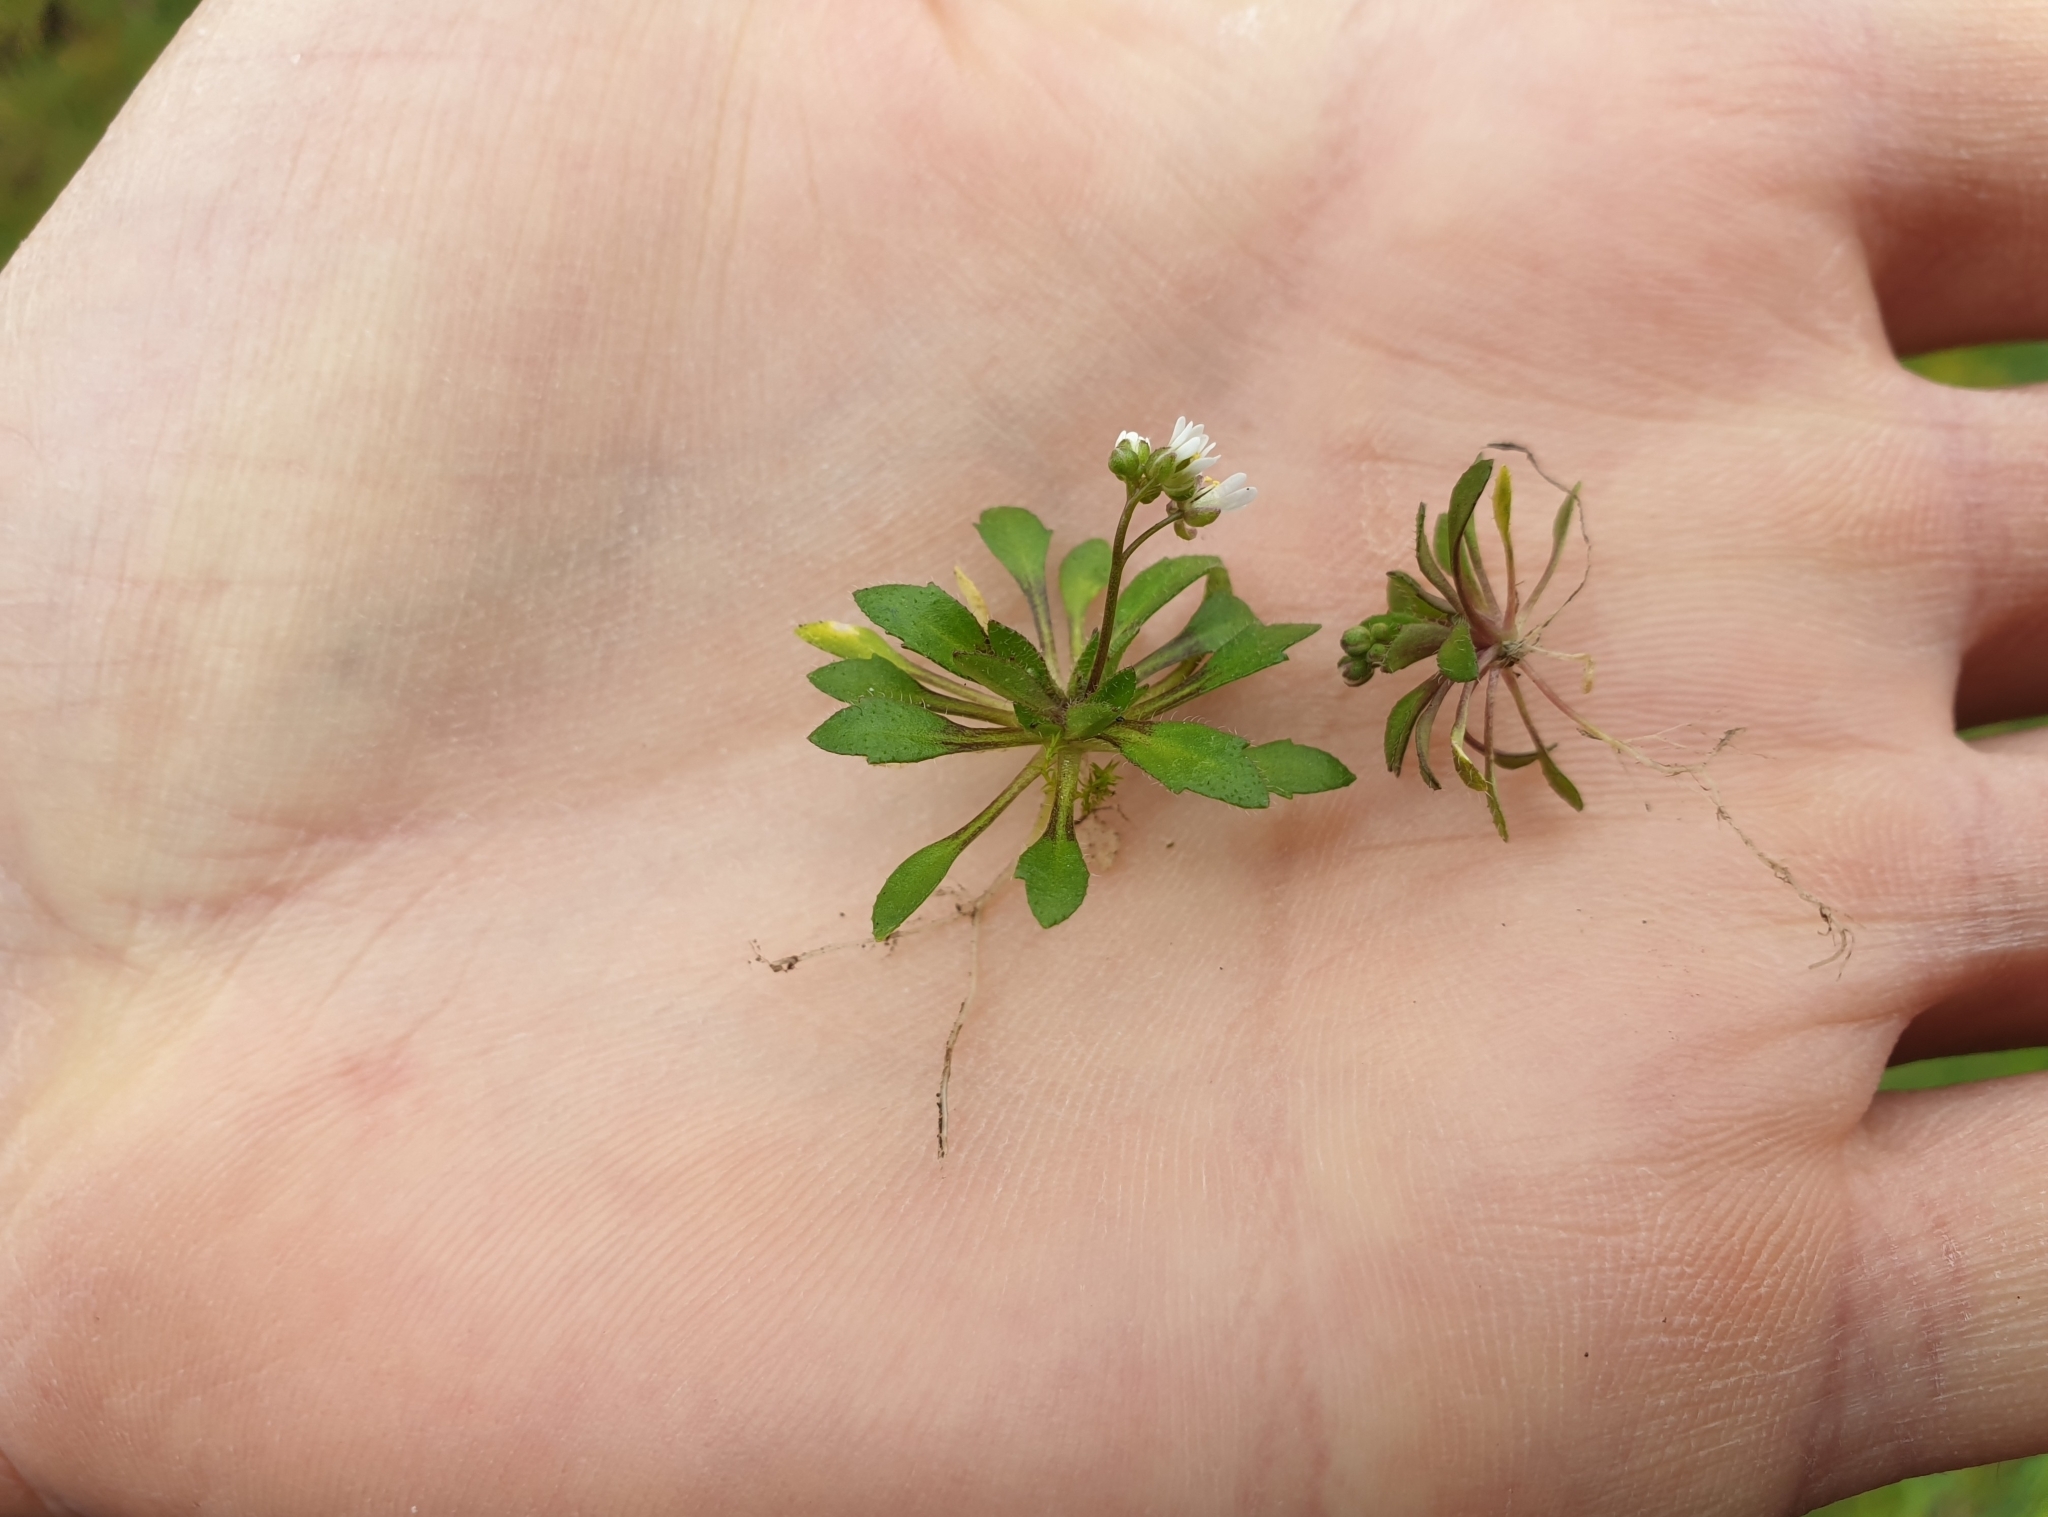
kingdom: Plantae
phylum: Tracheophyta
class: Magnoliopsida
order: Brassicales
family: Brassicaceae
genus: Draba
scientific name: Draba verna
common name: Spring draba
